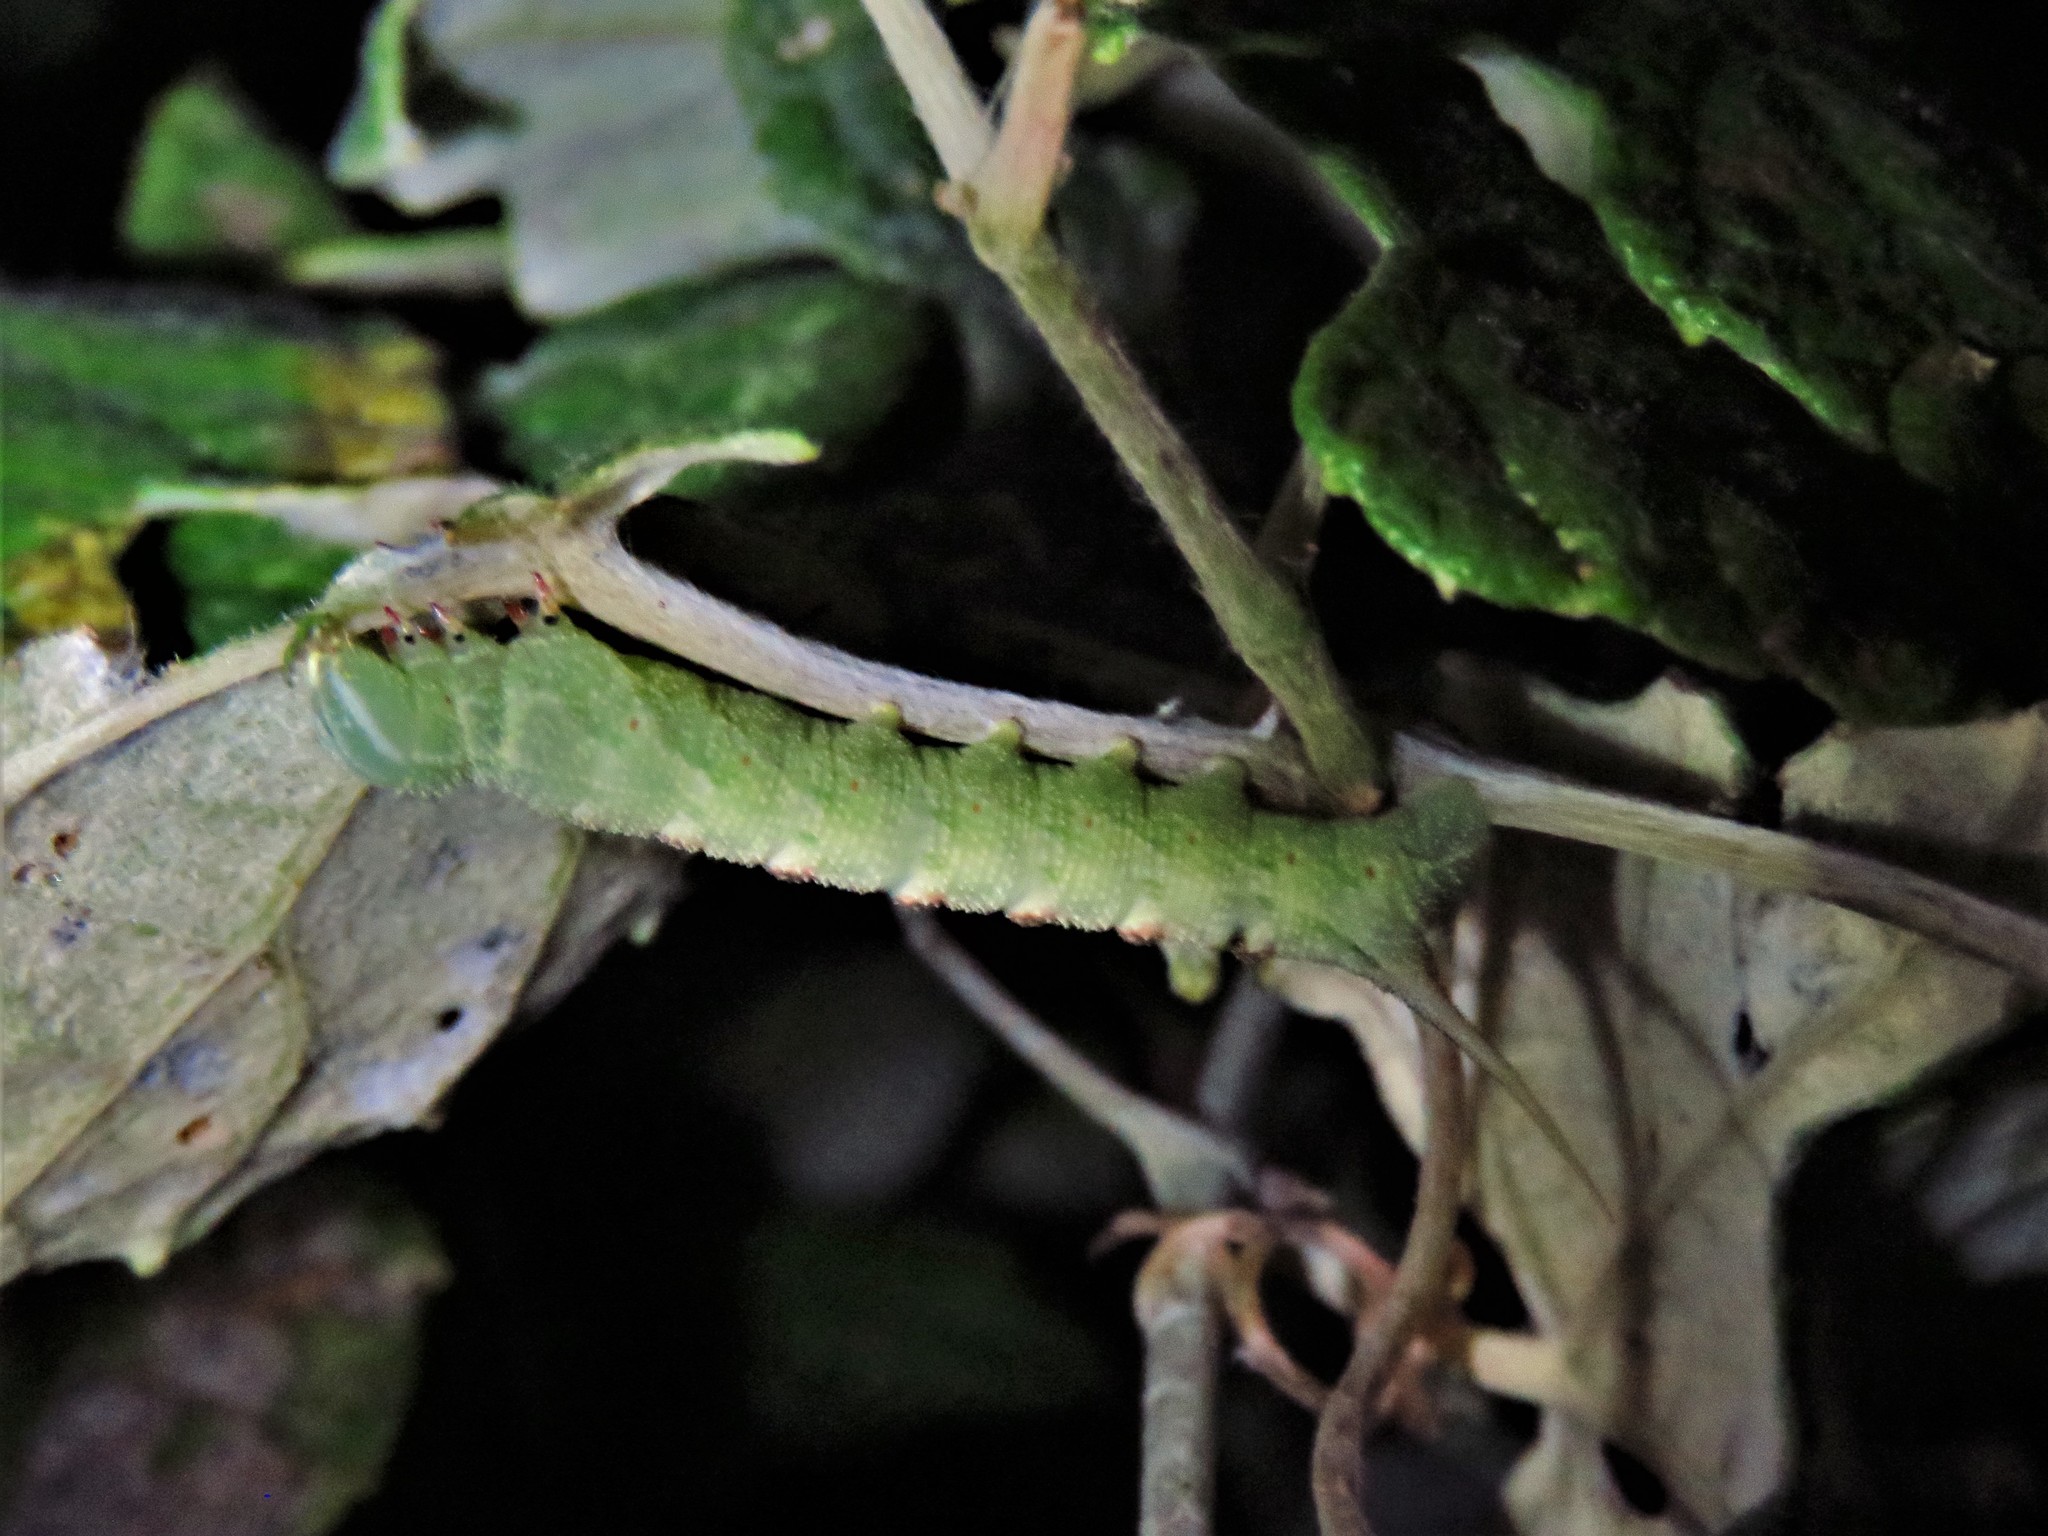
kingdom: Animalia
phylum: Arthropoda
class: Insecta
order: Lepidoptera
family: Sphingidae
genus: Darapsa
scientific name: Darapsa myron
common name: Hog sphinx
